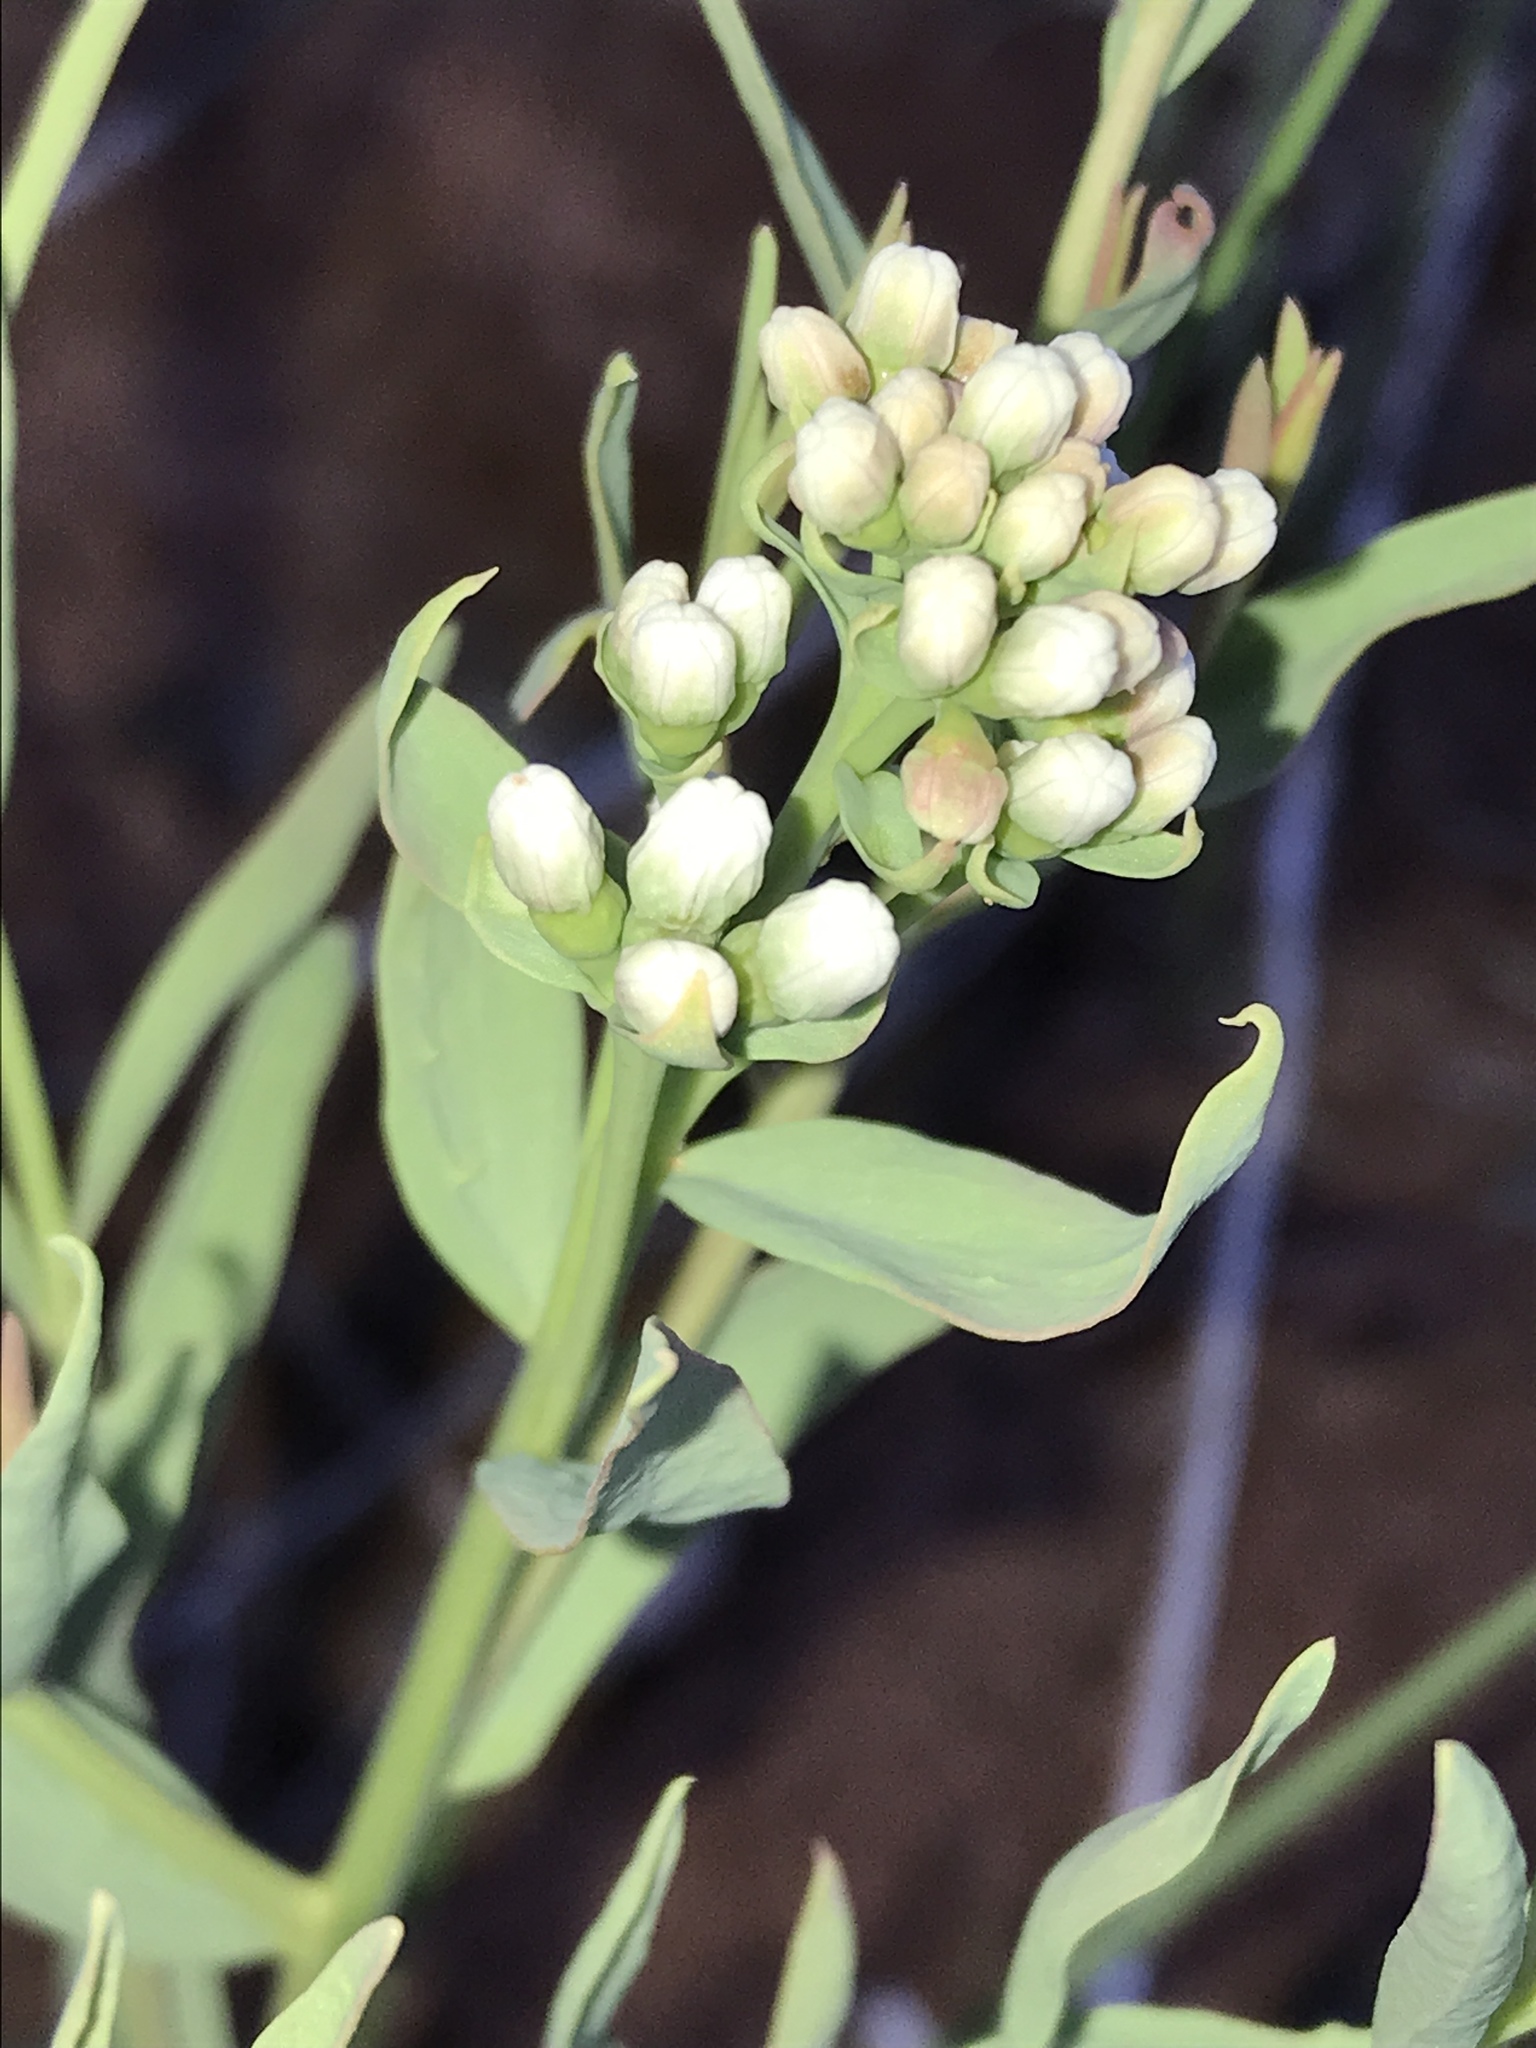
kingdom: Plantae
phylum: Tracheophyta
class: Magnoliopsida
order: Santalales
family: Comandraceae
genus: Comandra
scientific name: Comandra umbellata
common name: Bastard toadflax
